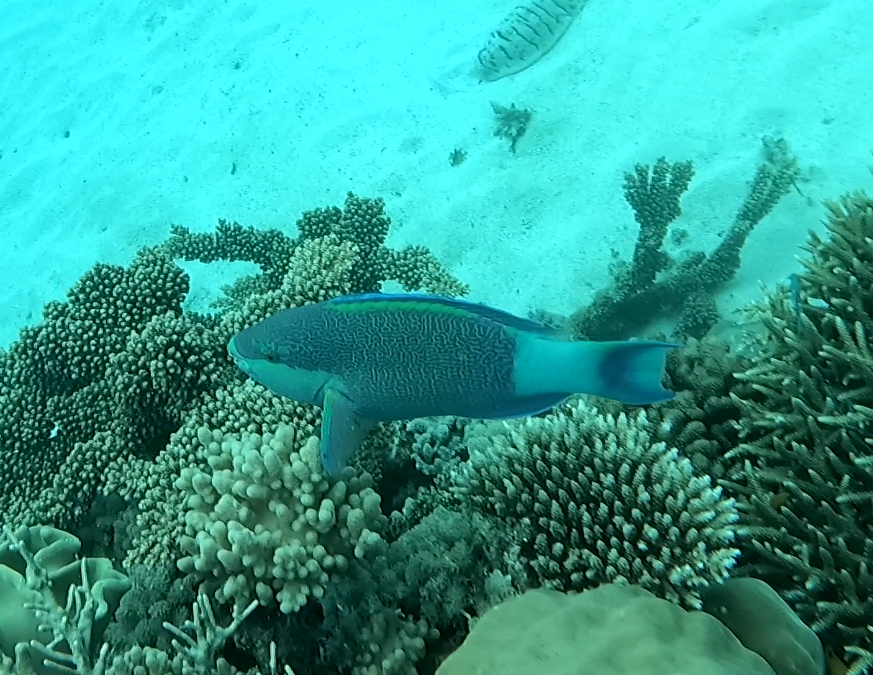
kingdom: Animalia
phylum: Chordata
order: Perciformes
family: Scaridae
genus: Scarus
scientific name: Scarus frenatus
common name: Bridled parrotfish
